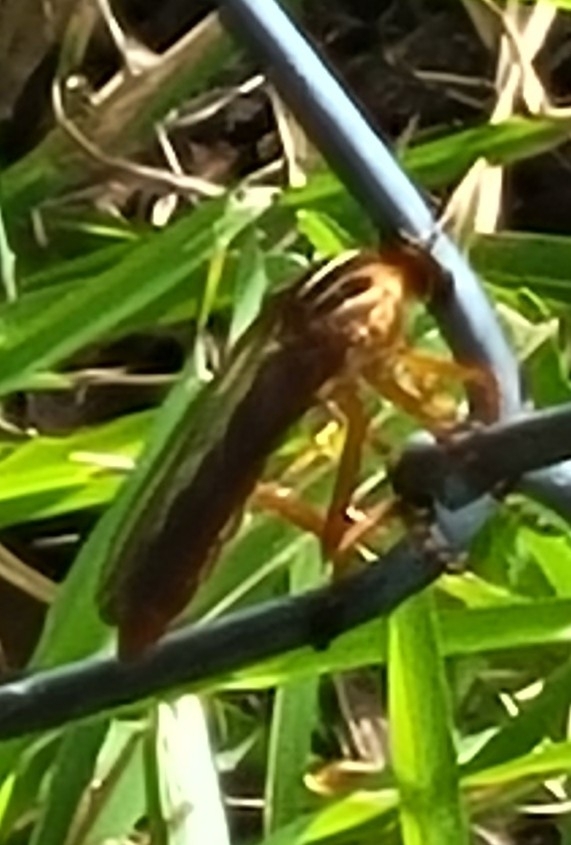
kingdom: Animalia
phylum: Arthropoda
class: Insecta
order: Diptera
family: Asilidae
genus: Diogmites
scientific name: Diogmites neoternatus
